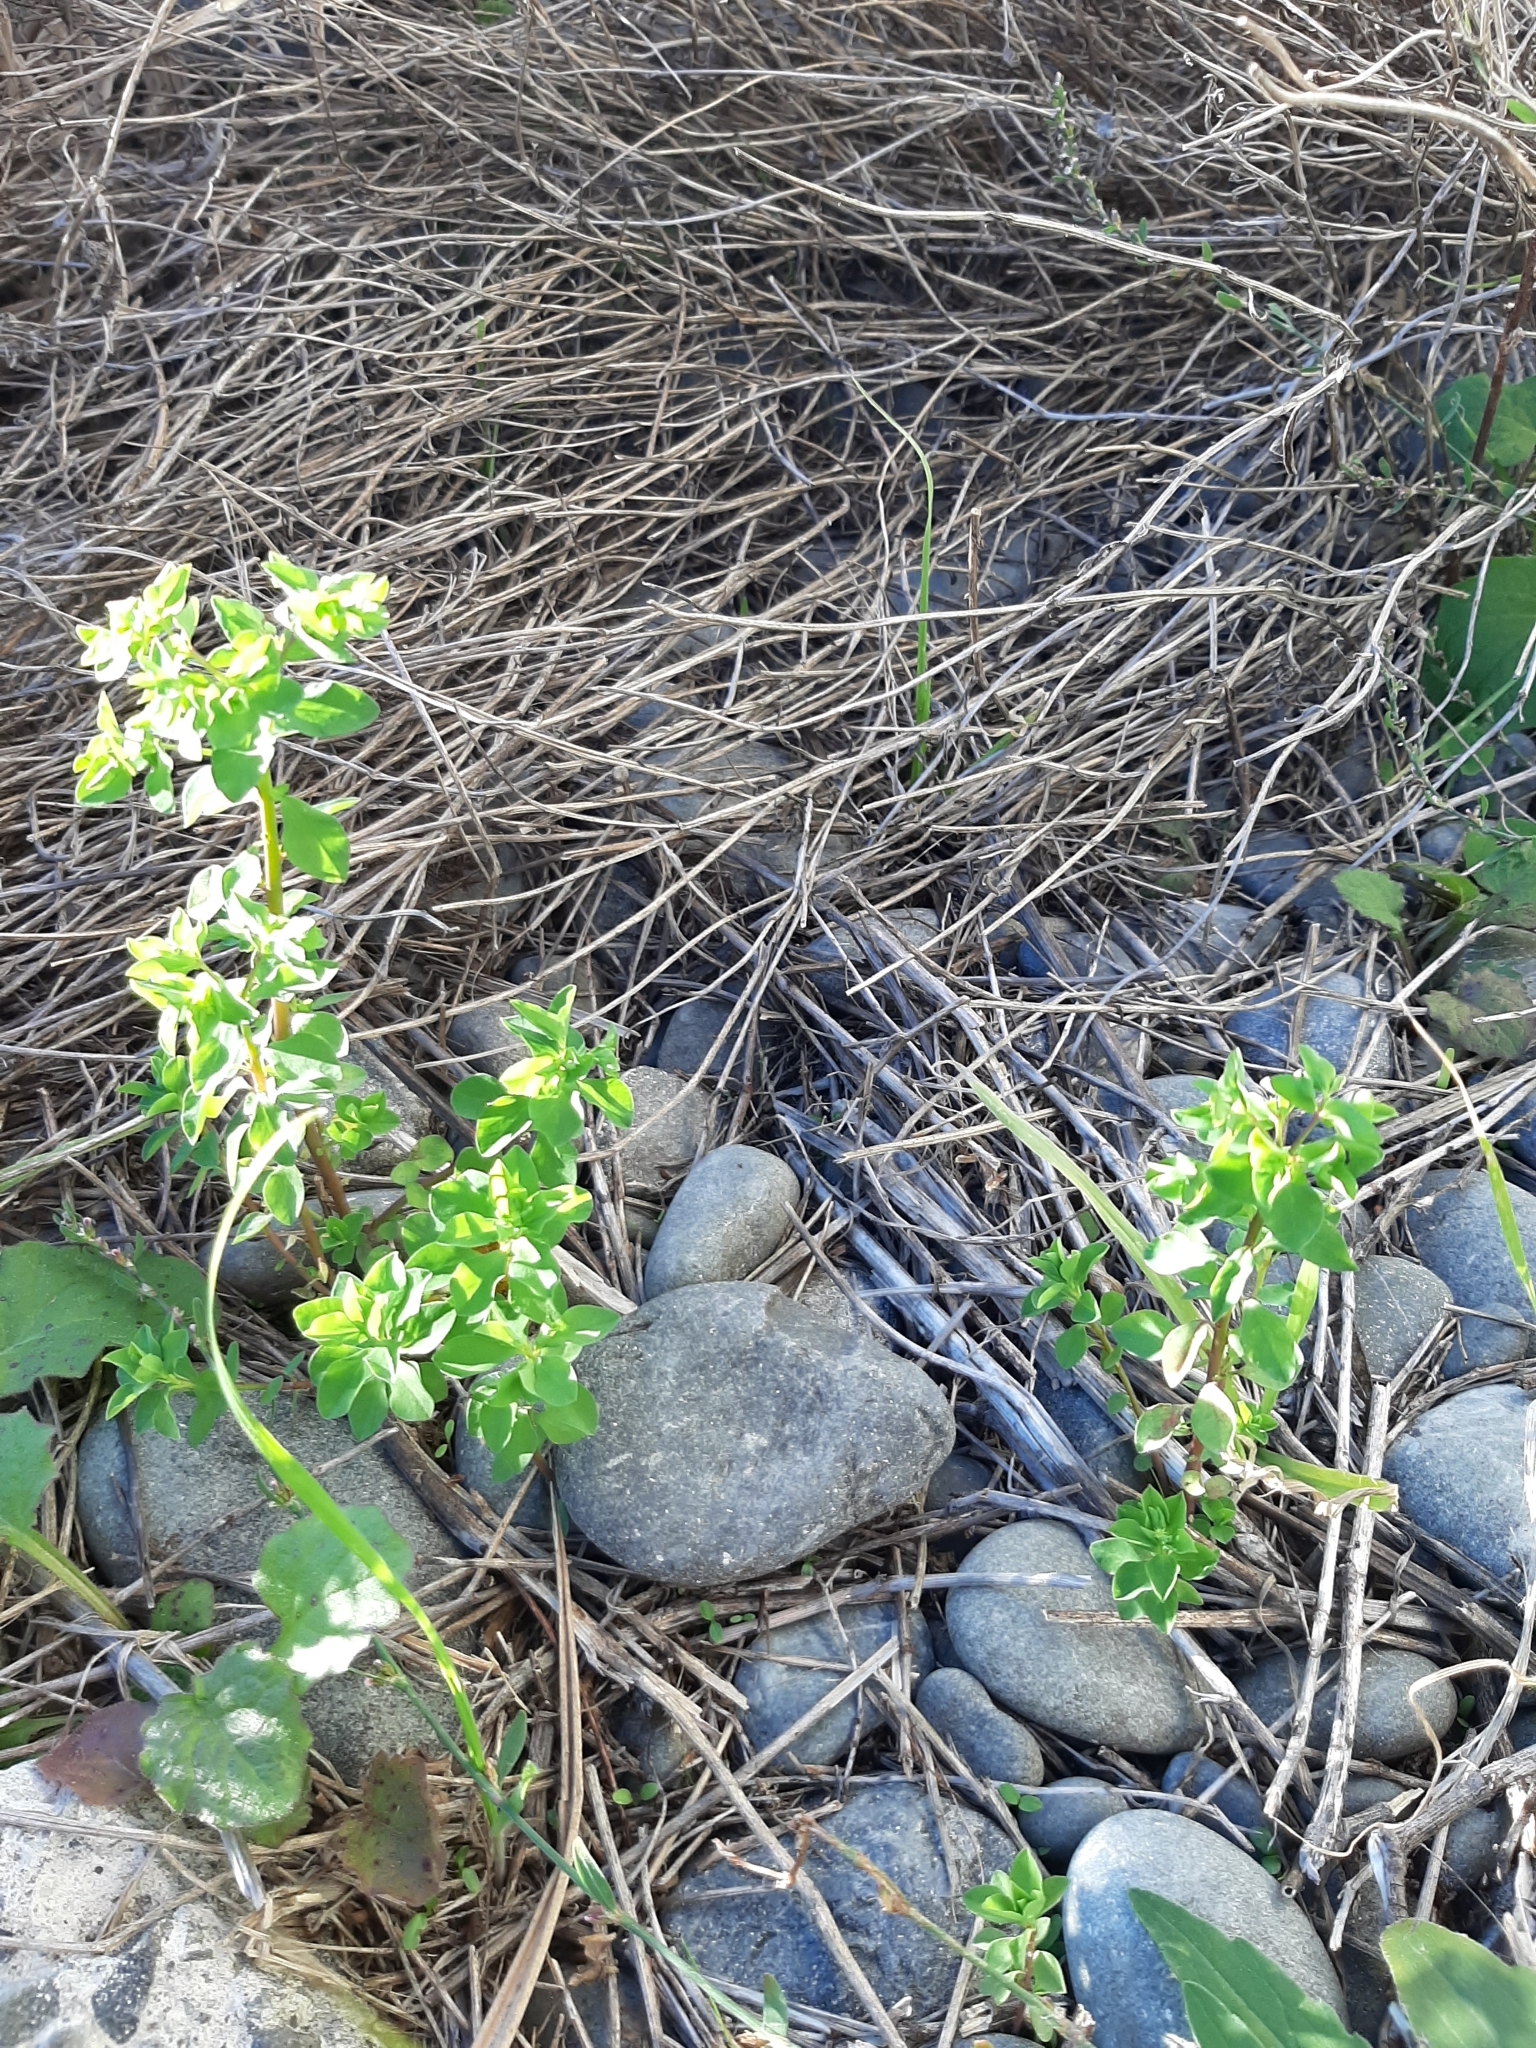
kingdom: Plantae
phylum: Tracheophyta
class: Magnoliopsida
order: Malpighiales
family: Euphorbiaceae
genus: Euphorbia
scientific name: Euphorbia peplus
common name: Petty spurge
